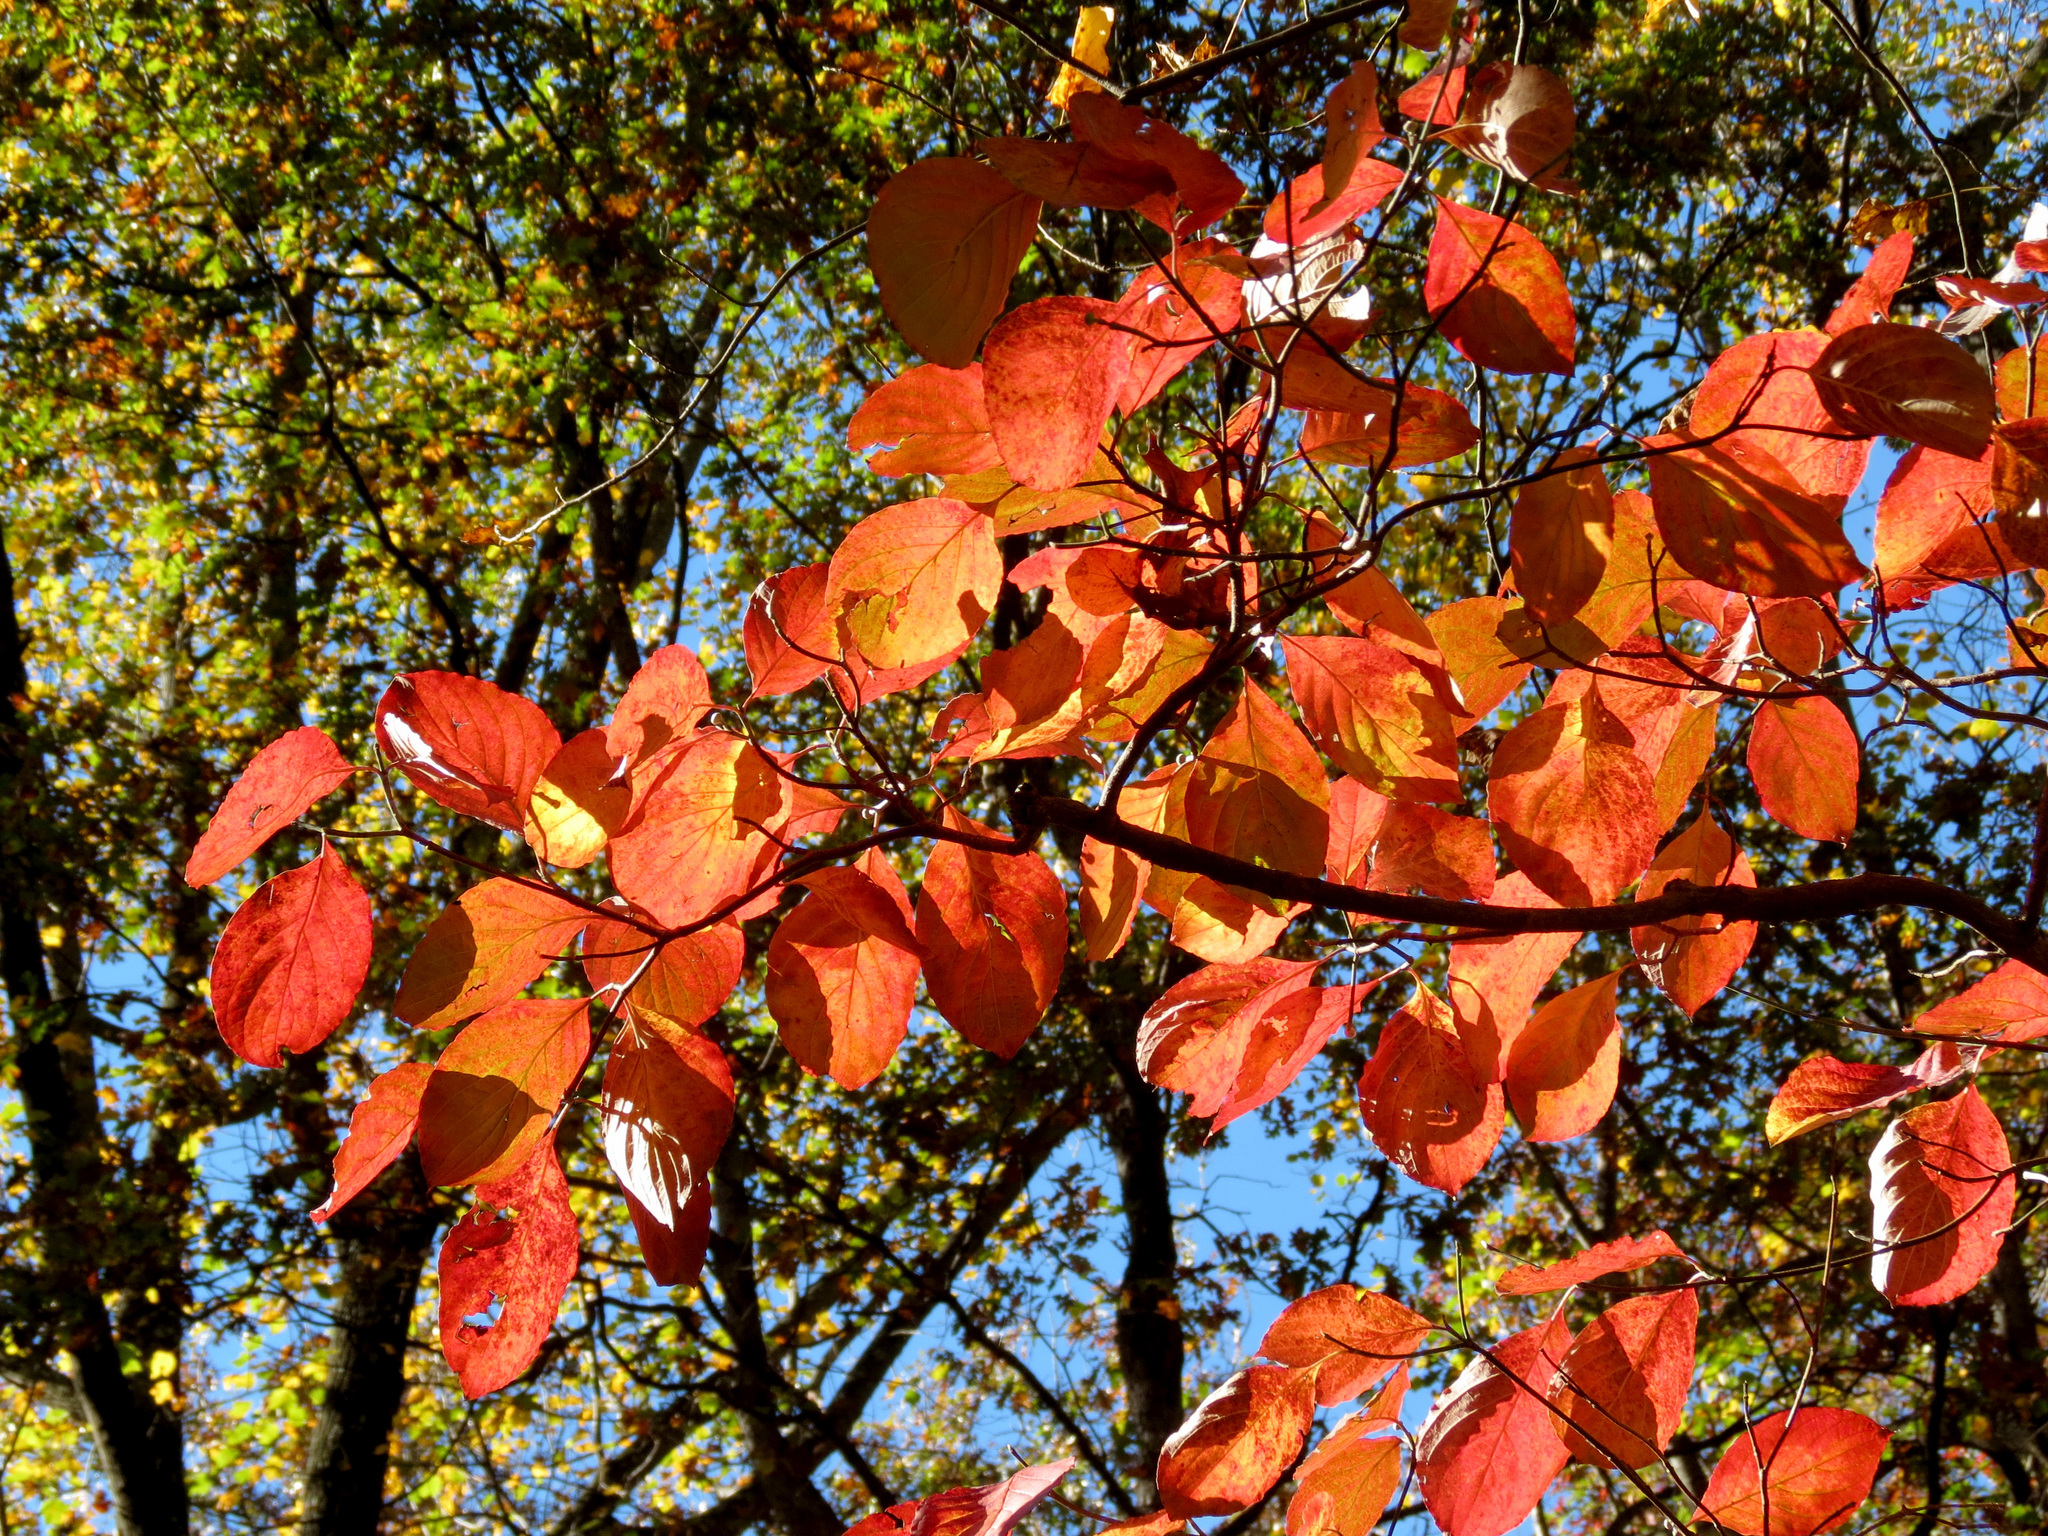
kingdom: Plantae
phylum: Tracheophyta
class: Magnoliopsida
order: Cornales
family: Cornaceae
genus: Cornus
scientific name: Cornus florida
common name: Flowering dogwood
